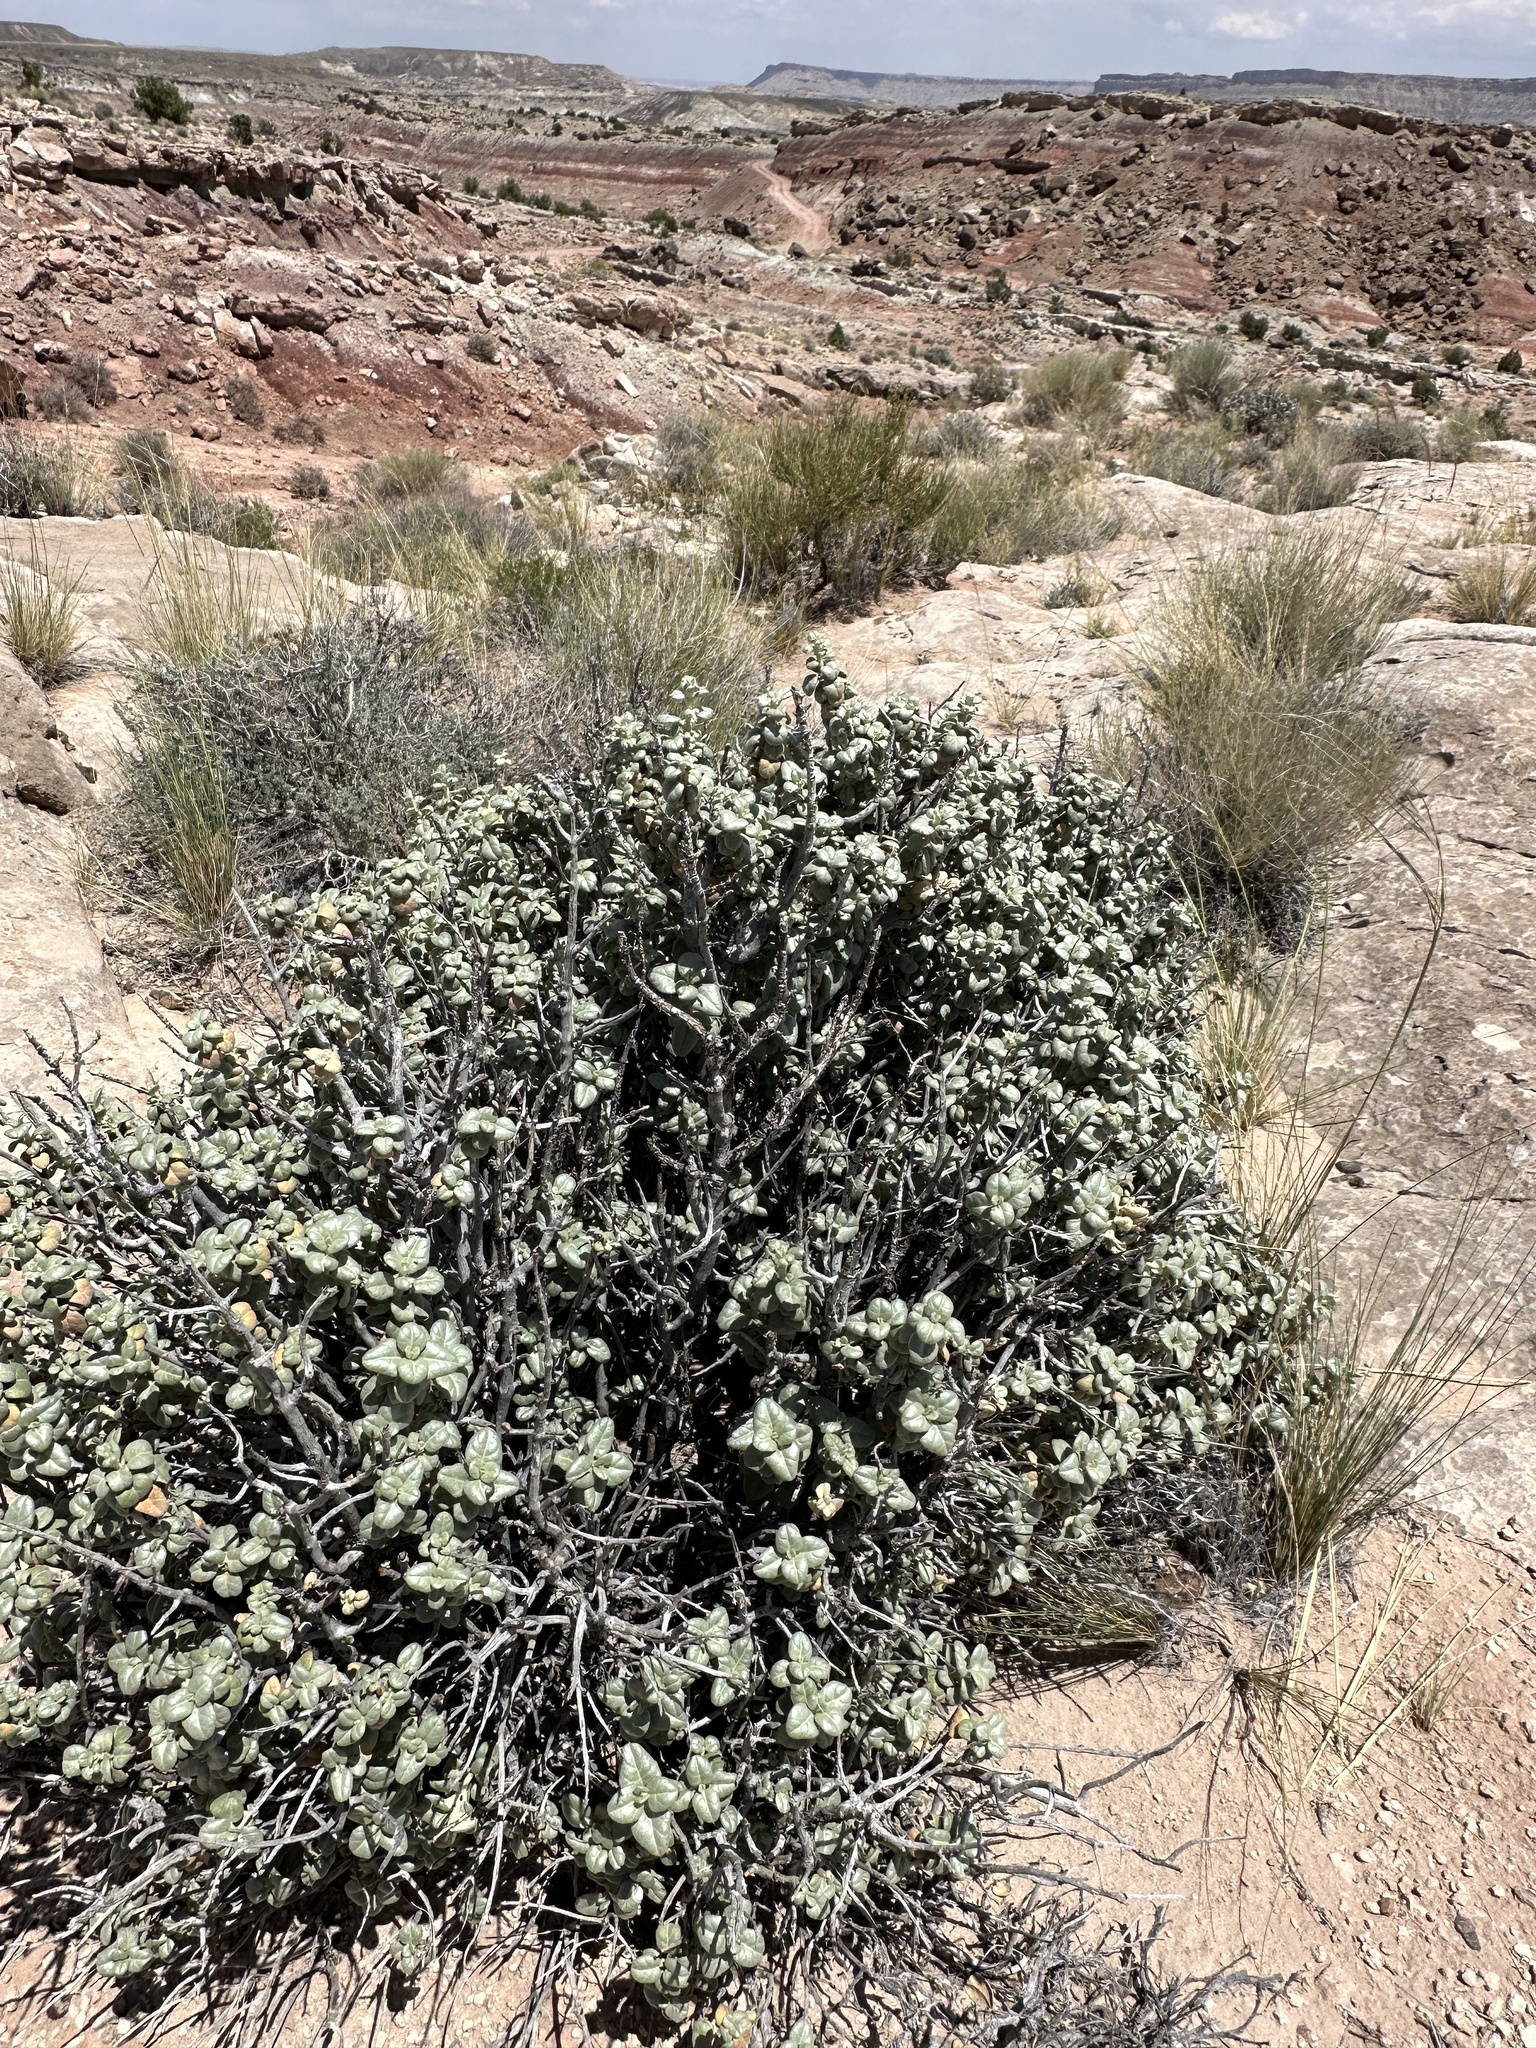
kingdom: Plantae
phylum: Tracheophyta
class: Magnoliopsida
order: Rosales
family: Elaeagnaceae
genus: Shepherdia
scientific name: Shepherdia rotundifolia
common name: Silverscale
